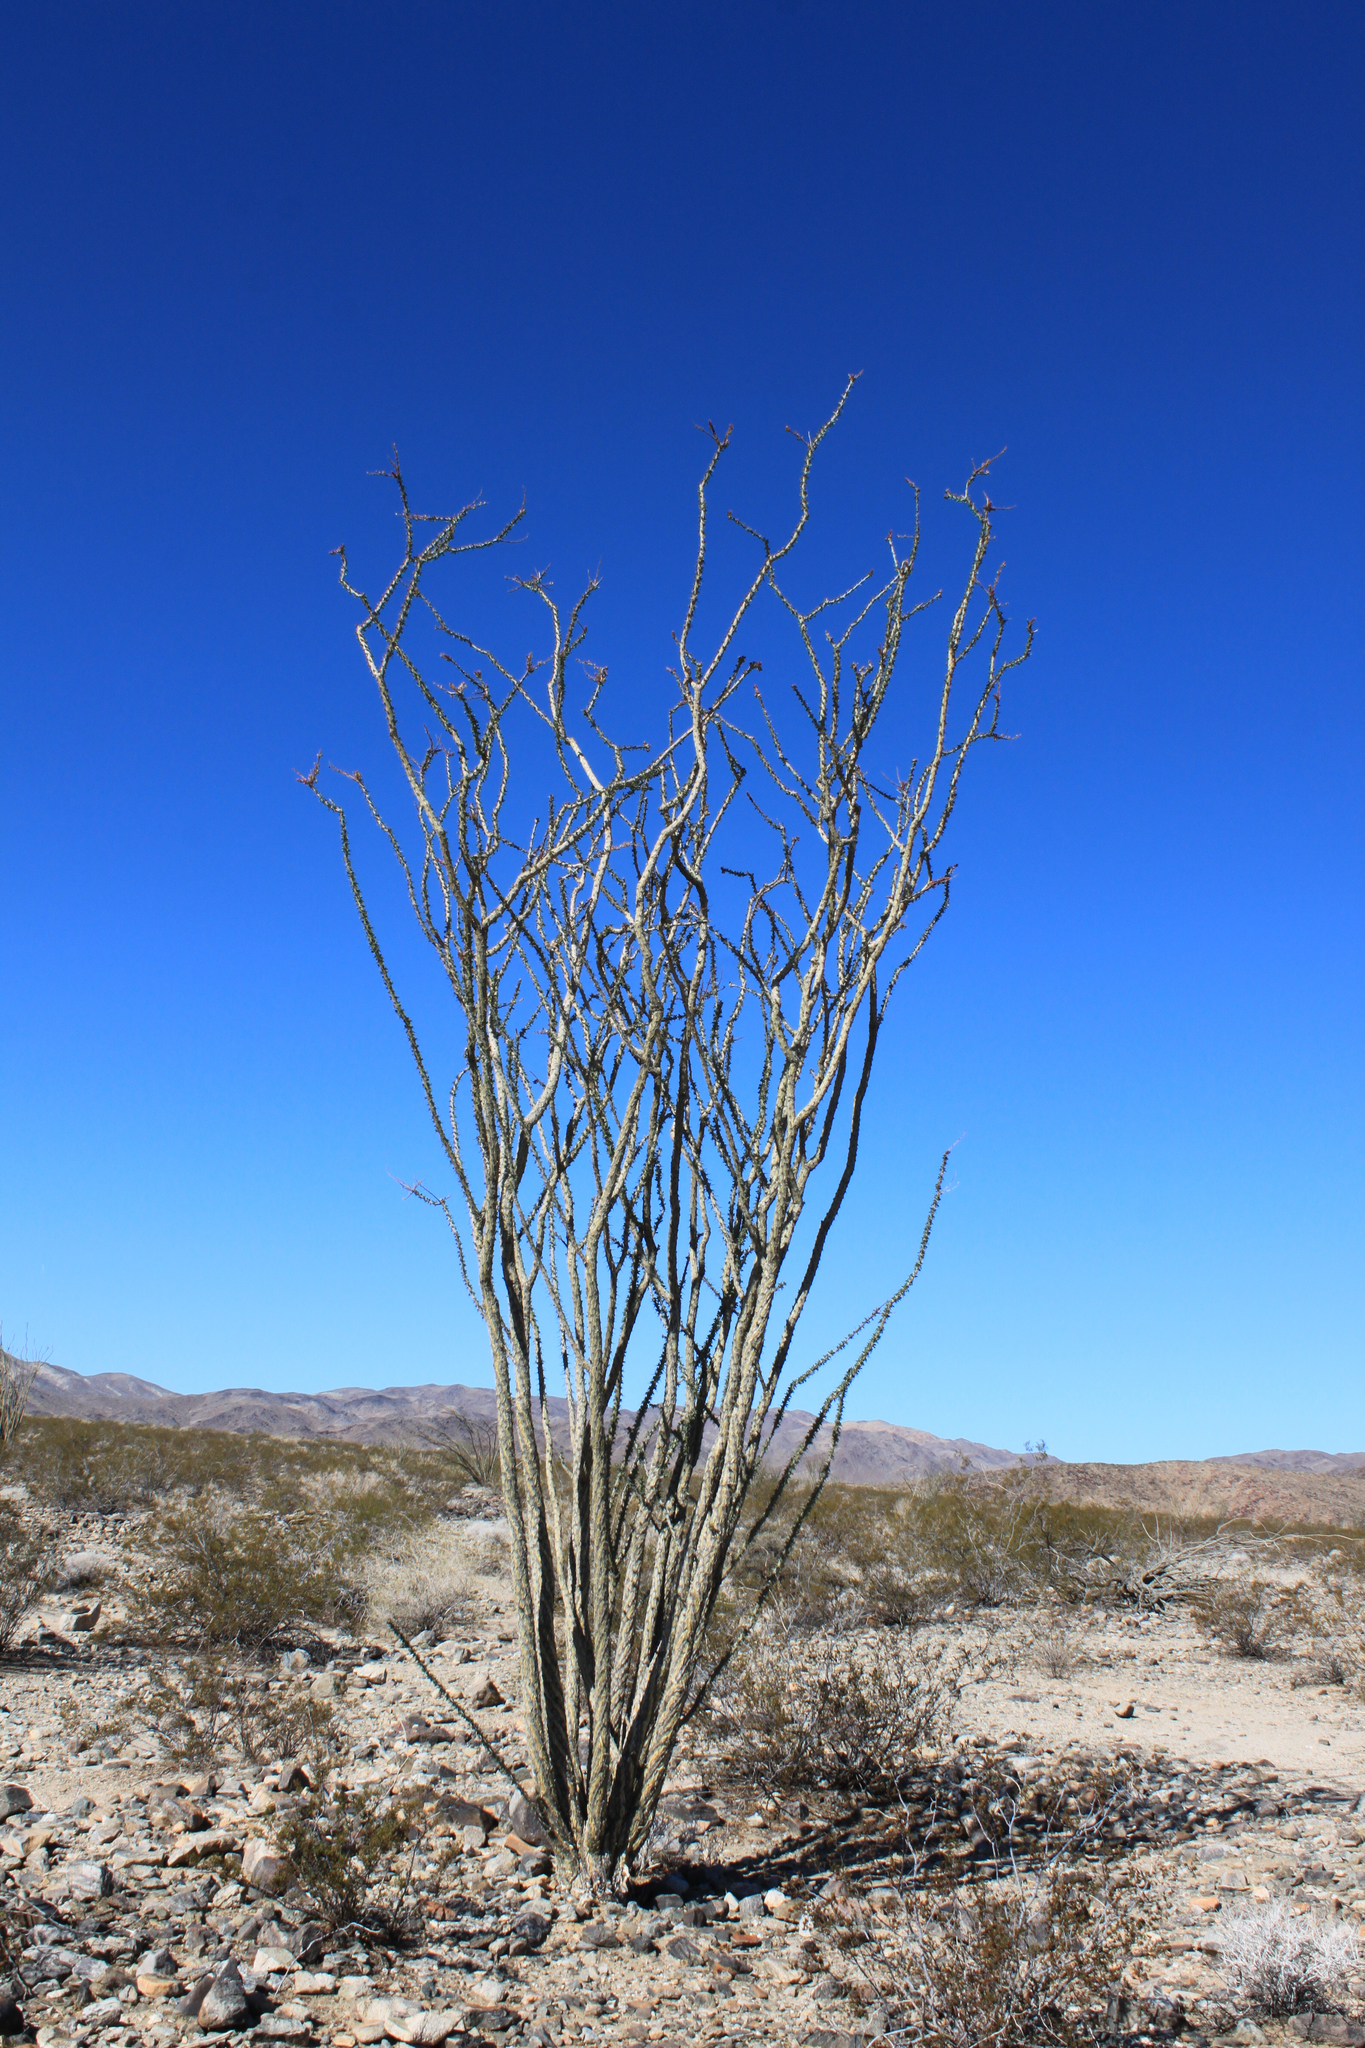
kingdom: Plantae
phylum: Tracheophyta
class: Magnoliopsida
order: Ericales
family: Fouquieriaceae
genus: Fouquieria
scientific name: Fouquieria splendens
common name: Vine-cactus
